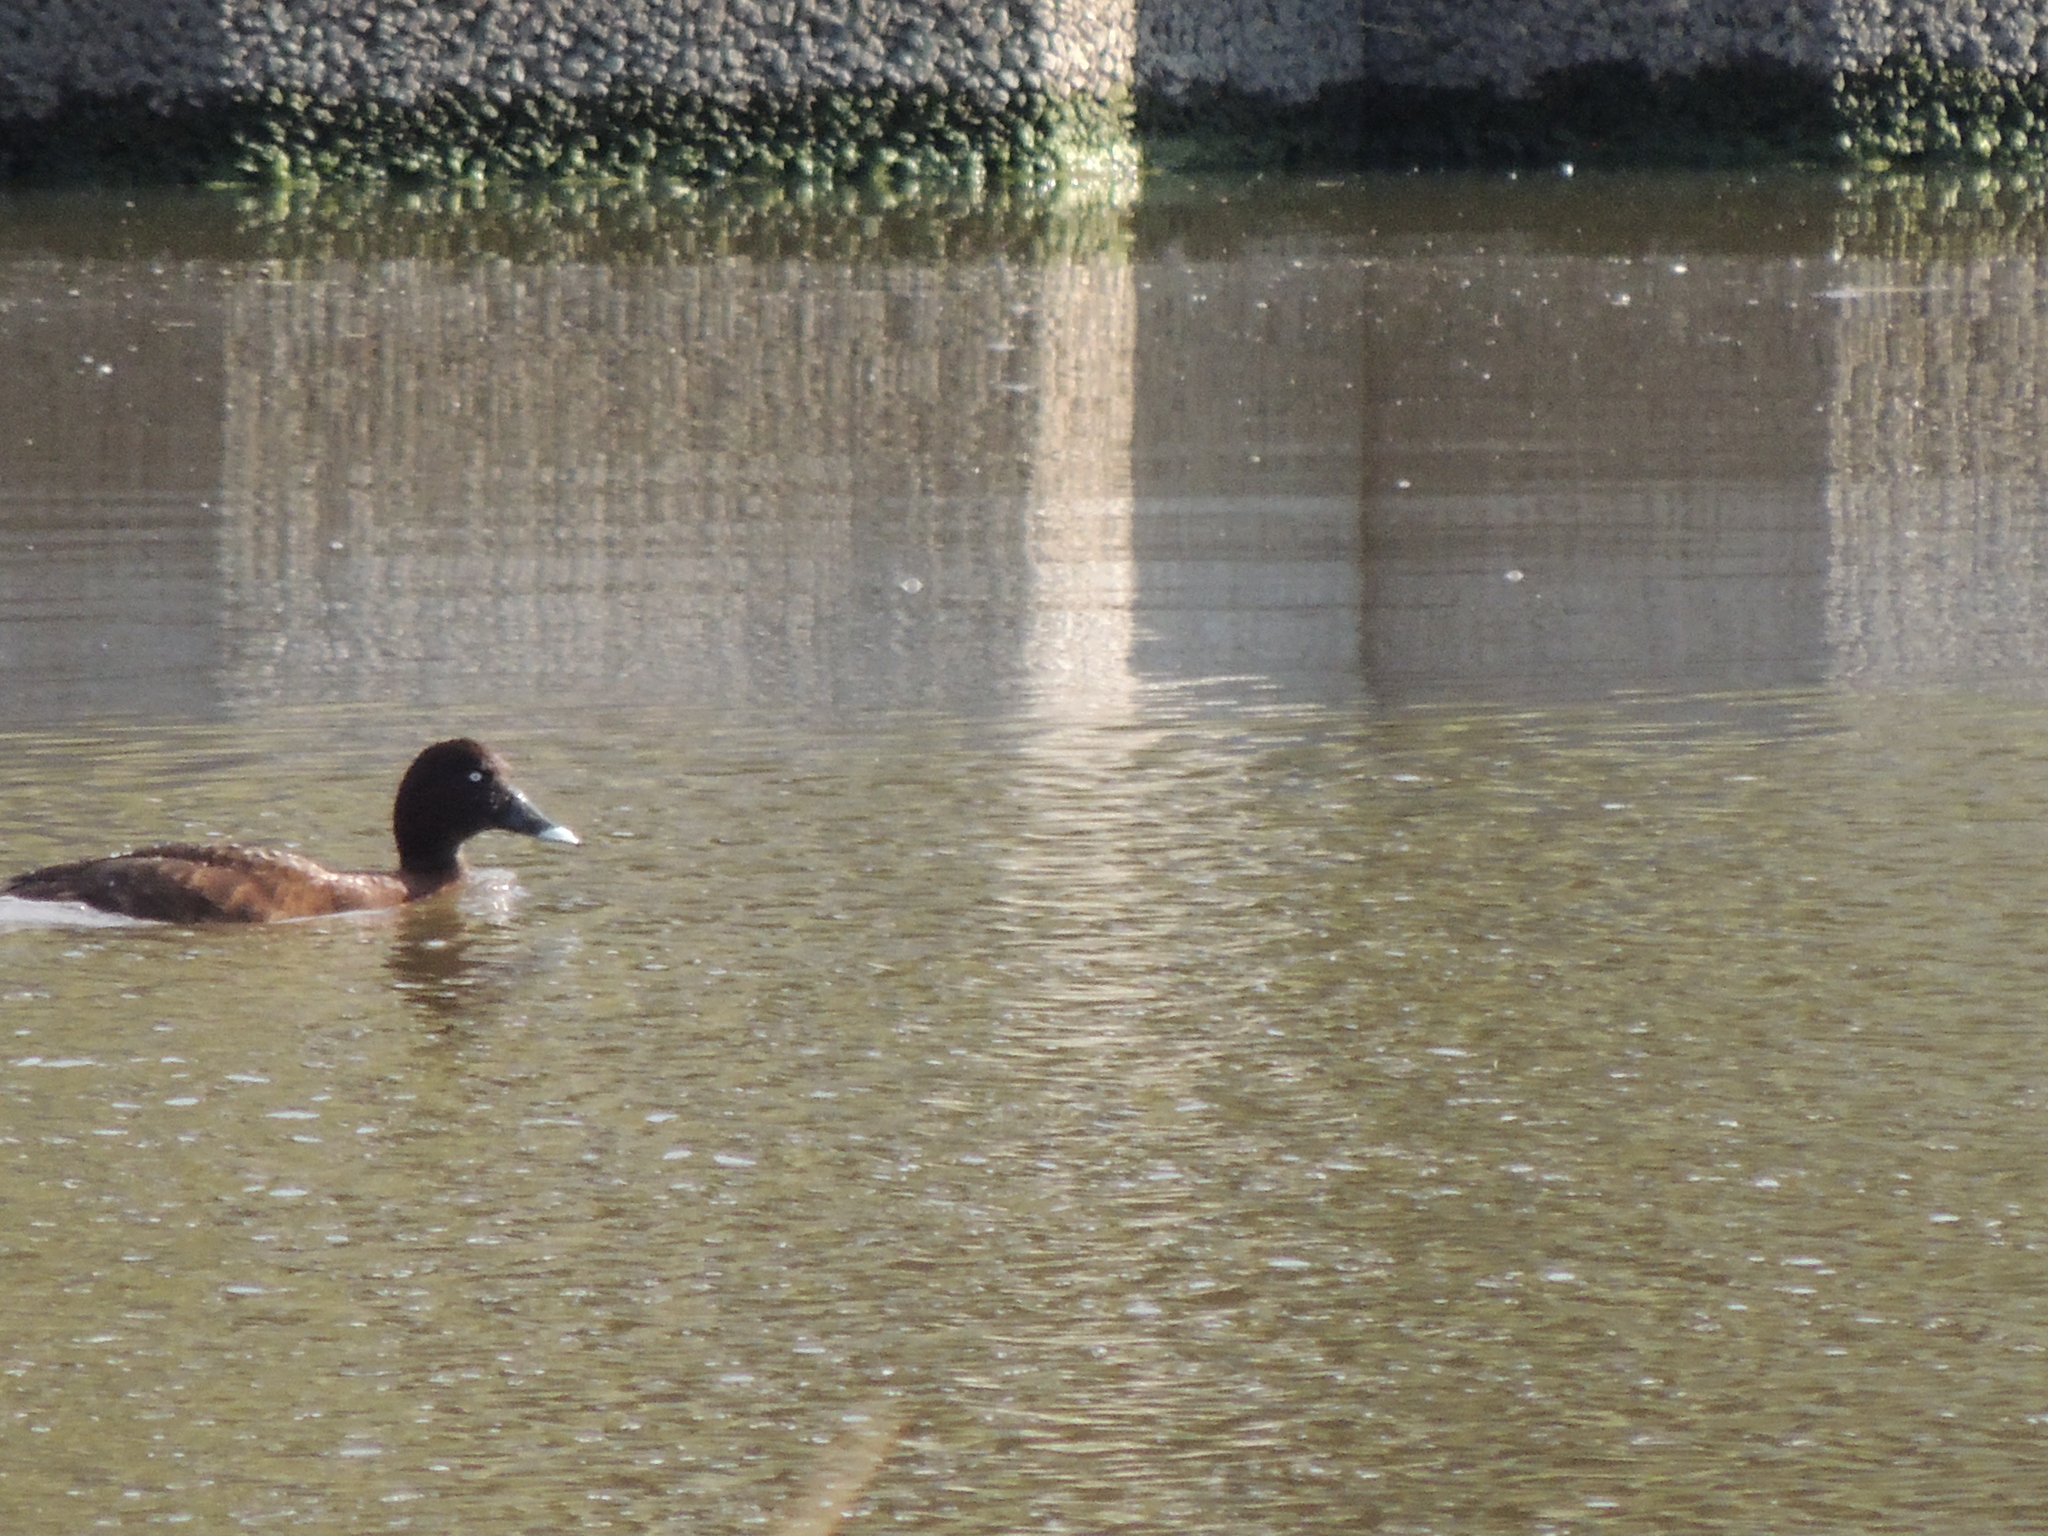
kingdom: Animalia
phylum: Chordata
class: Aves
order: Anseriformes
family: Anatidae
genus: Aythya
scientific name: Aythya australis
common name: Hardhead
